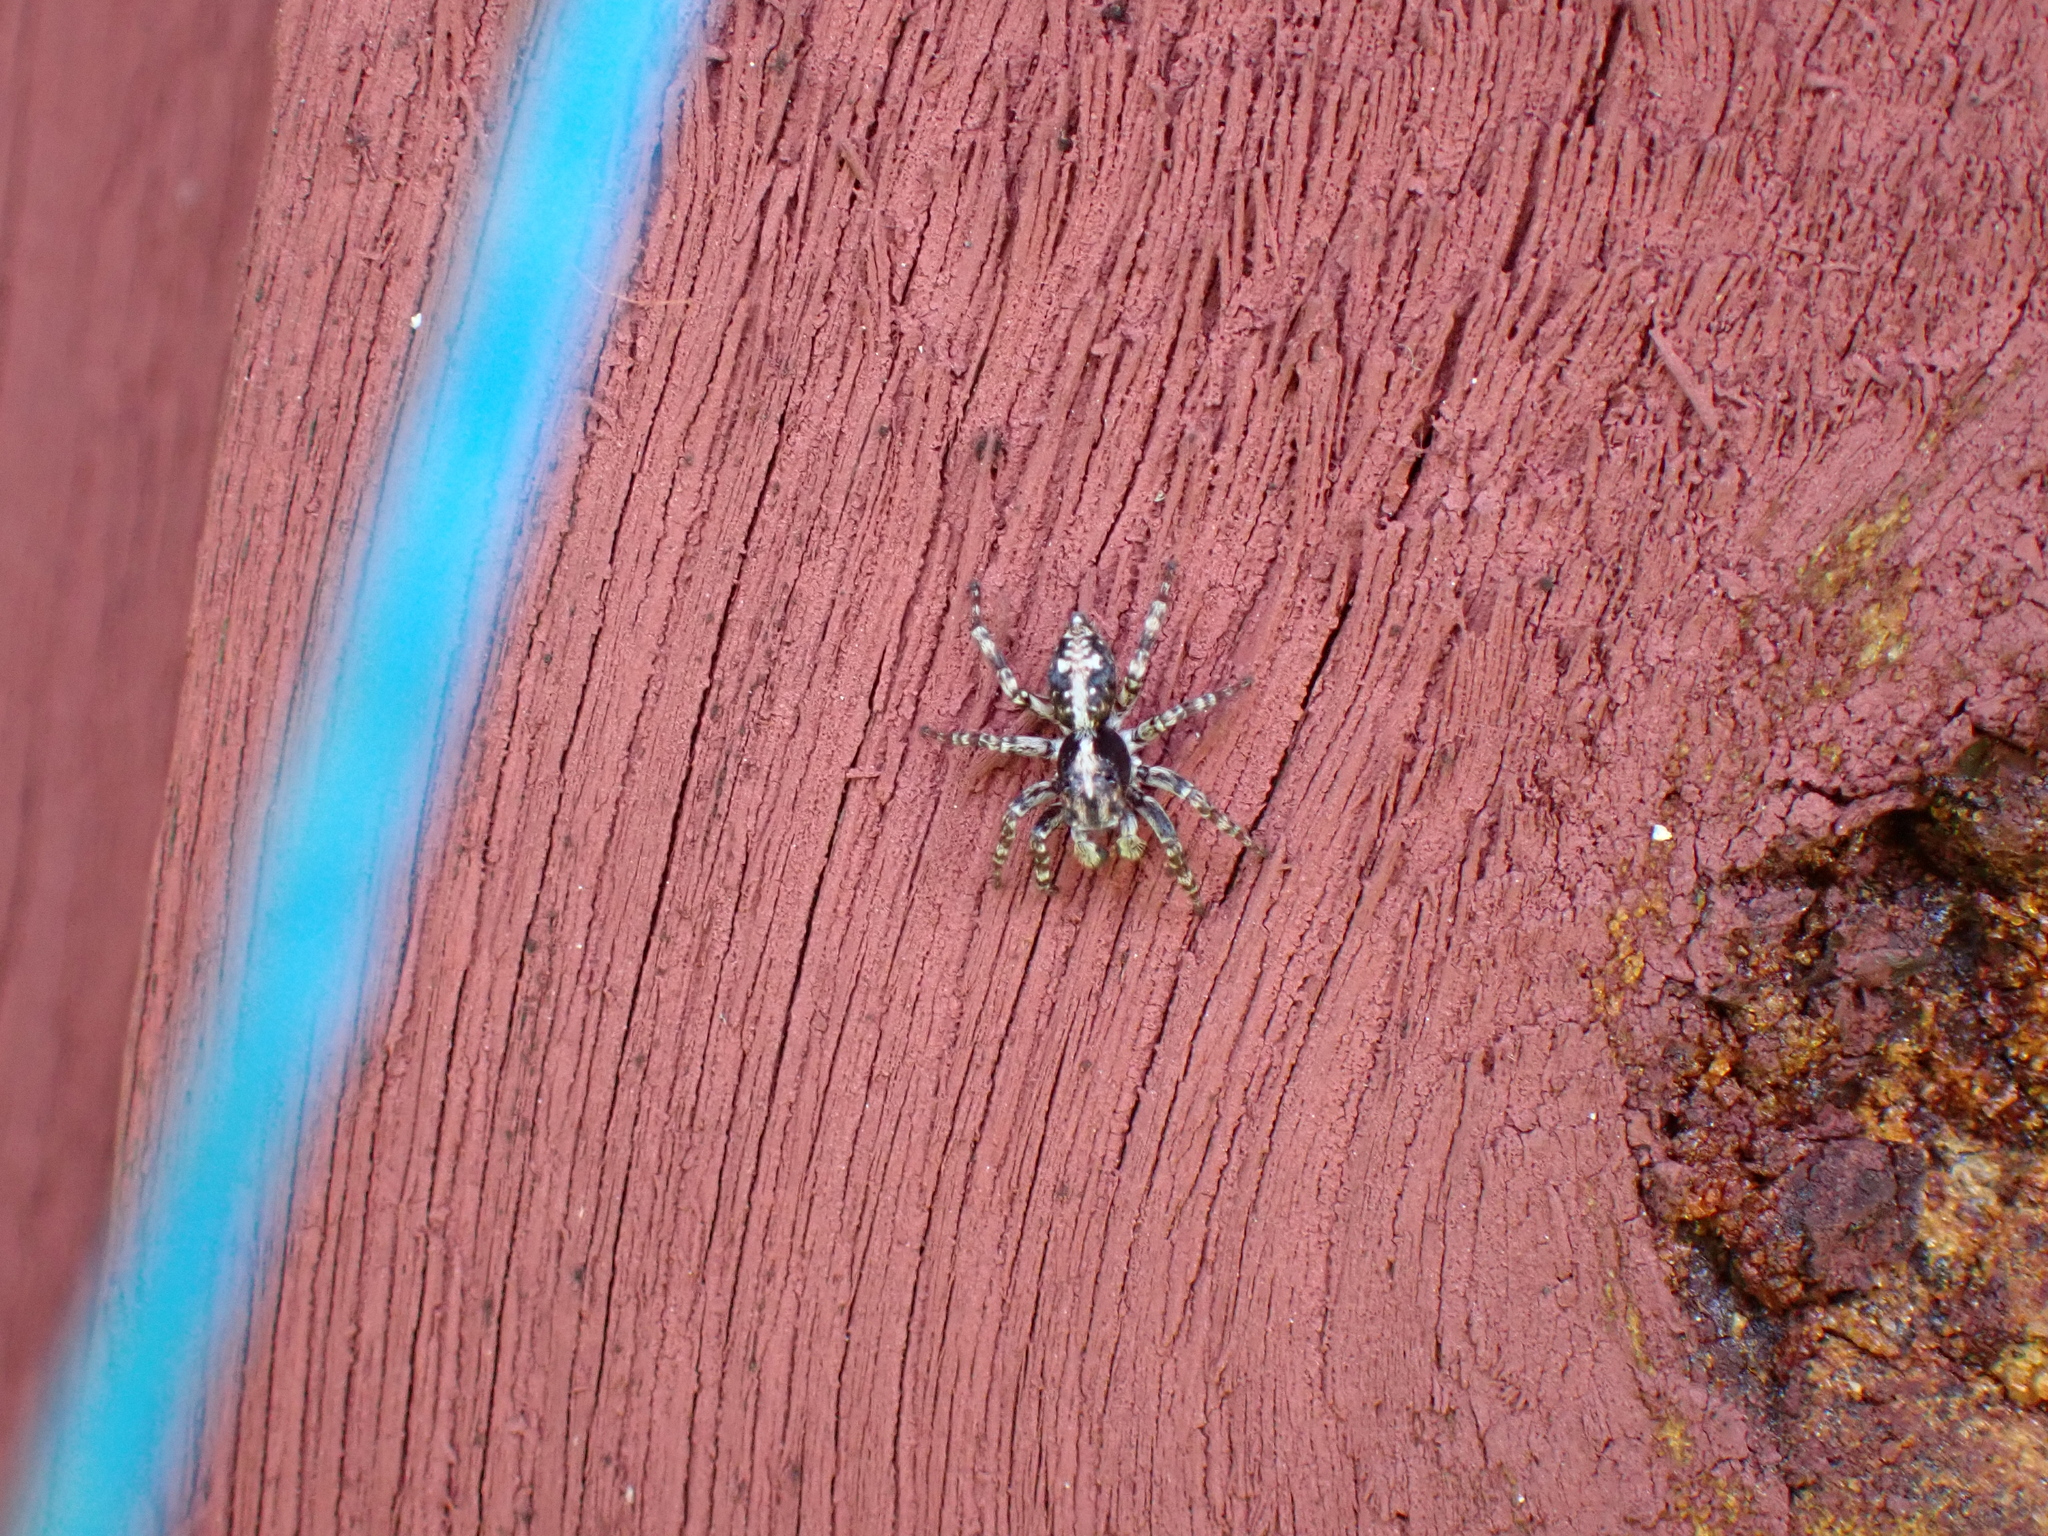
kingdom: Animalia
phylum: Arthropoda
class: Arachnida
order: Araneae
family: Salticidae
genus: Attulus
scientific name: Attulus terebratus
